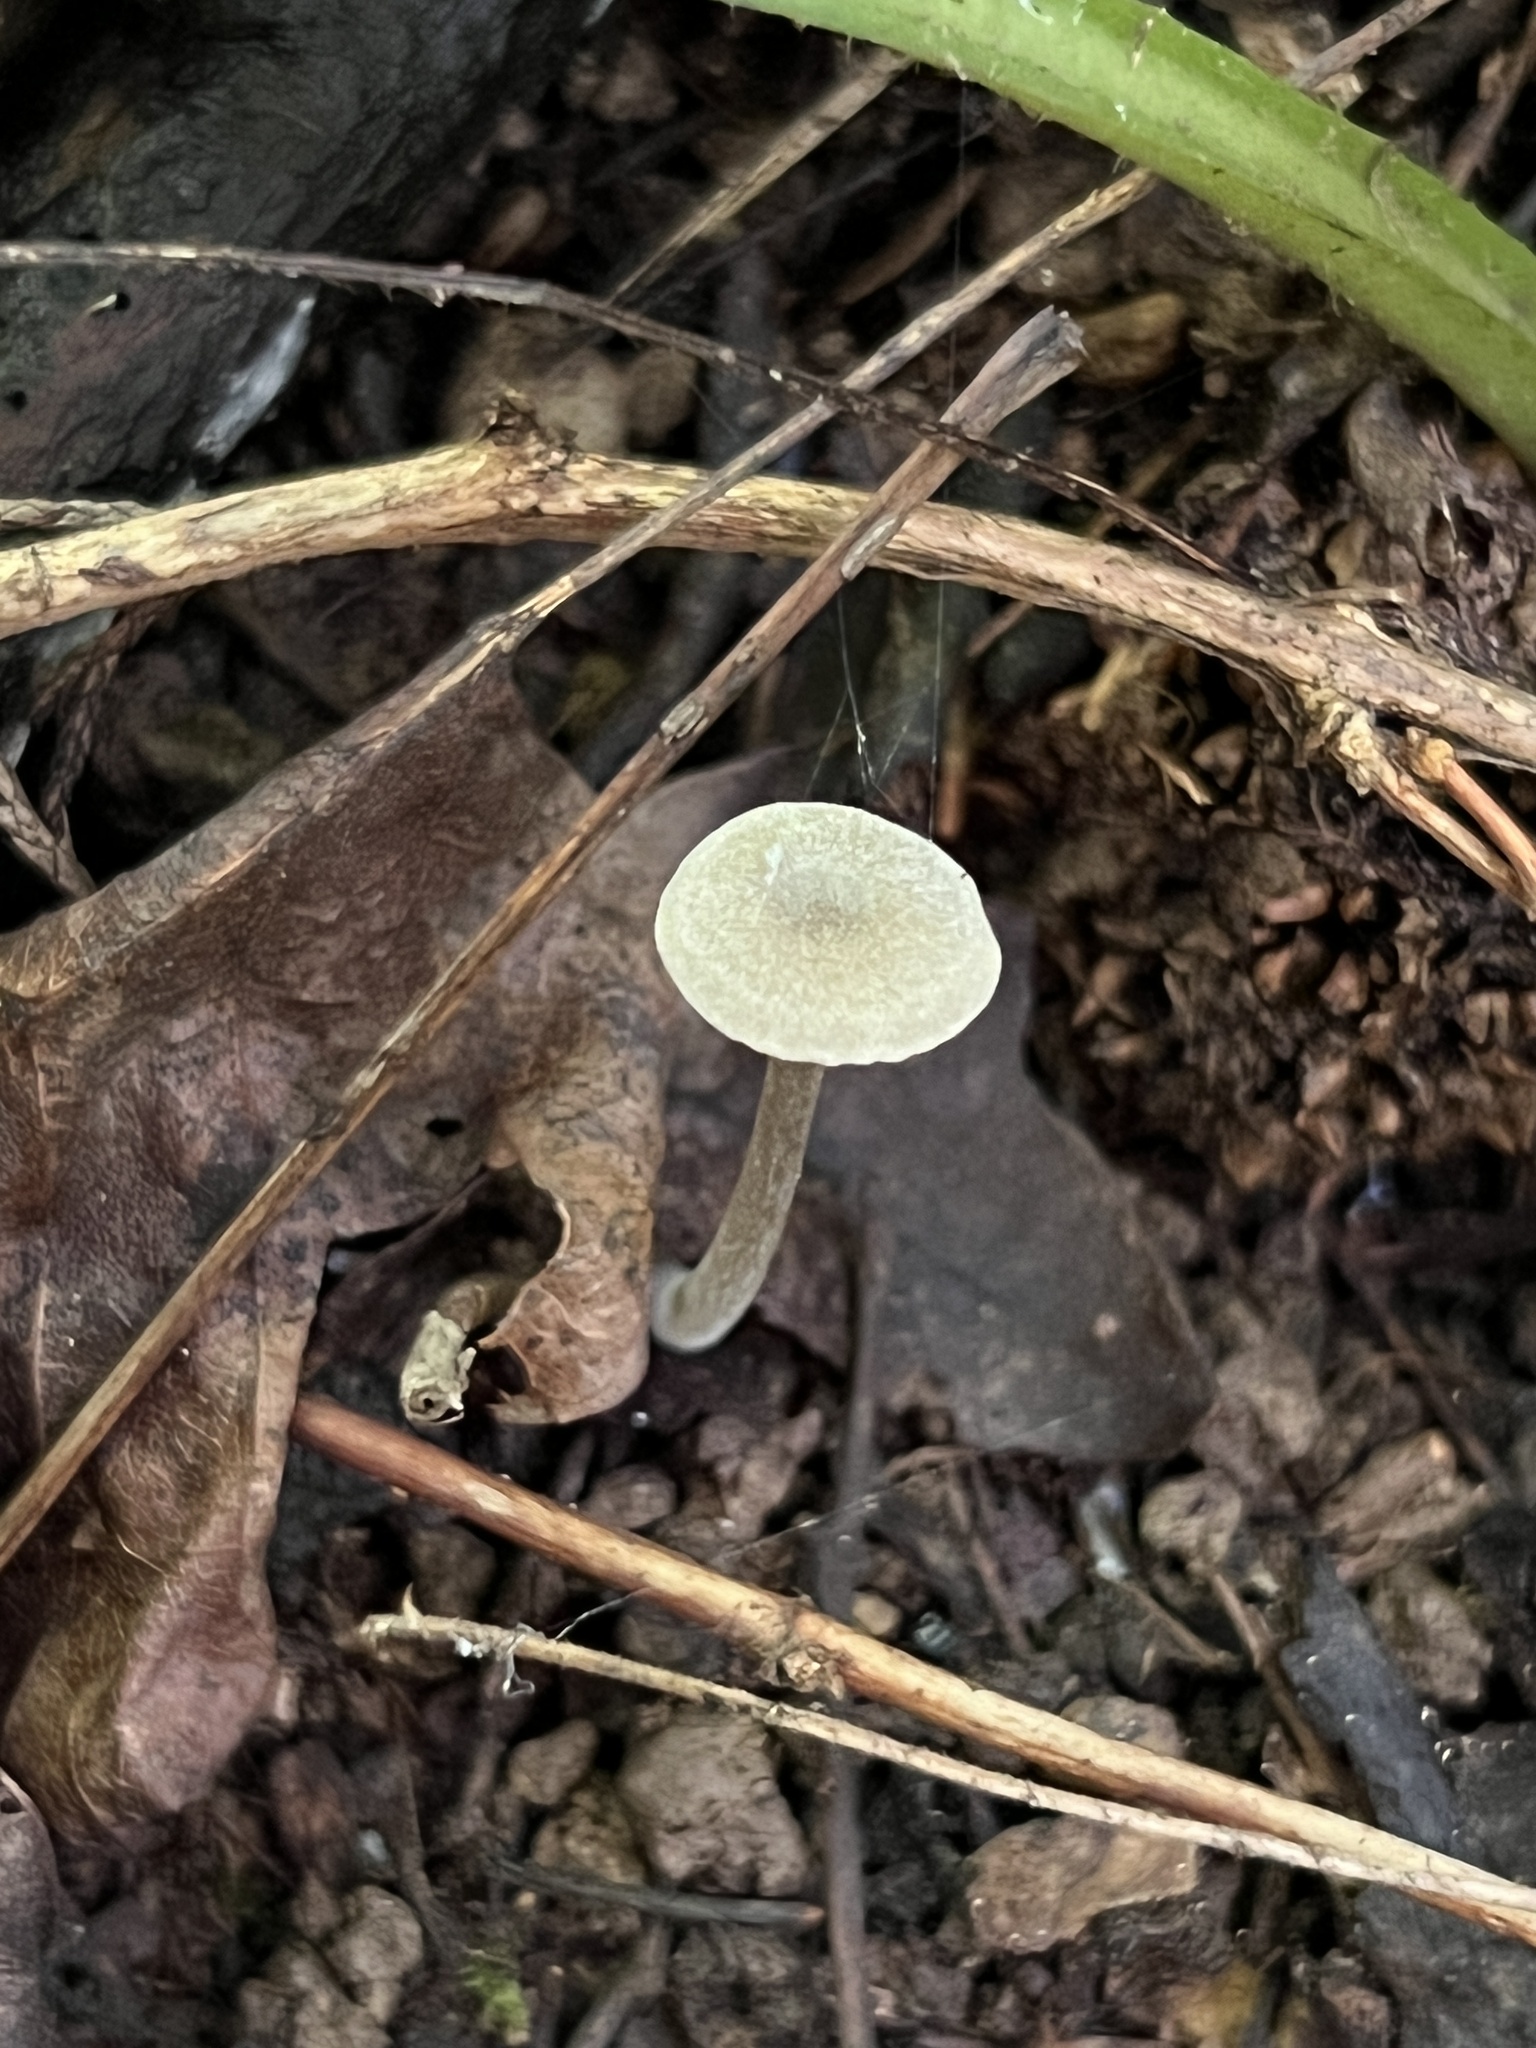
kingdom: Fungi
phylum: Basidiomycota
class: Agaricomycetes
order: Agaricales
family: Mycenaceae
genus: Hydropus
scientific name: Hydropus praedecurrens
